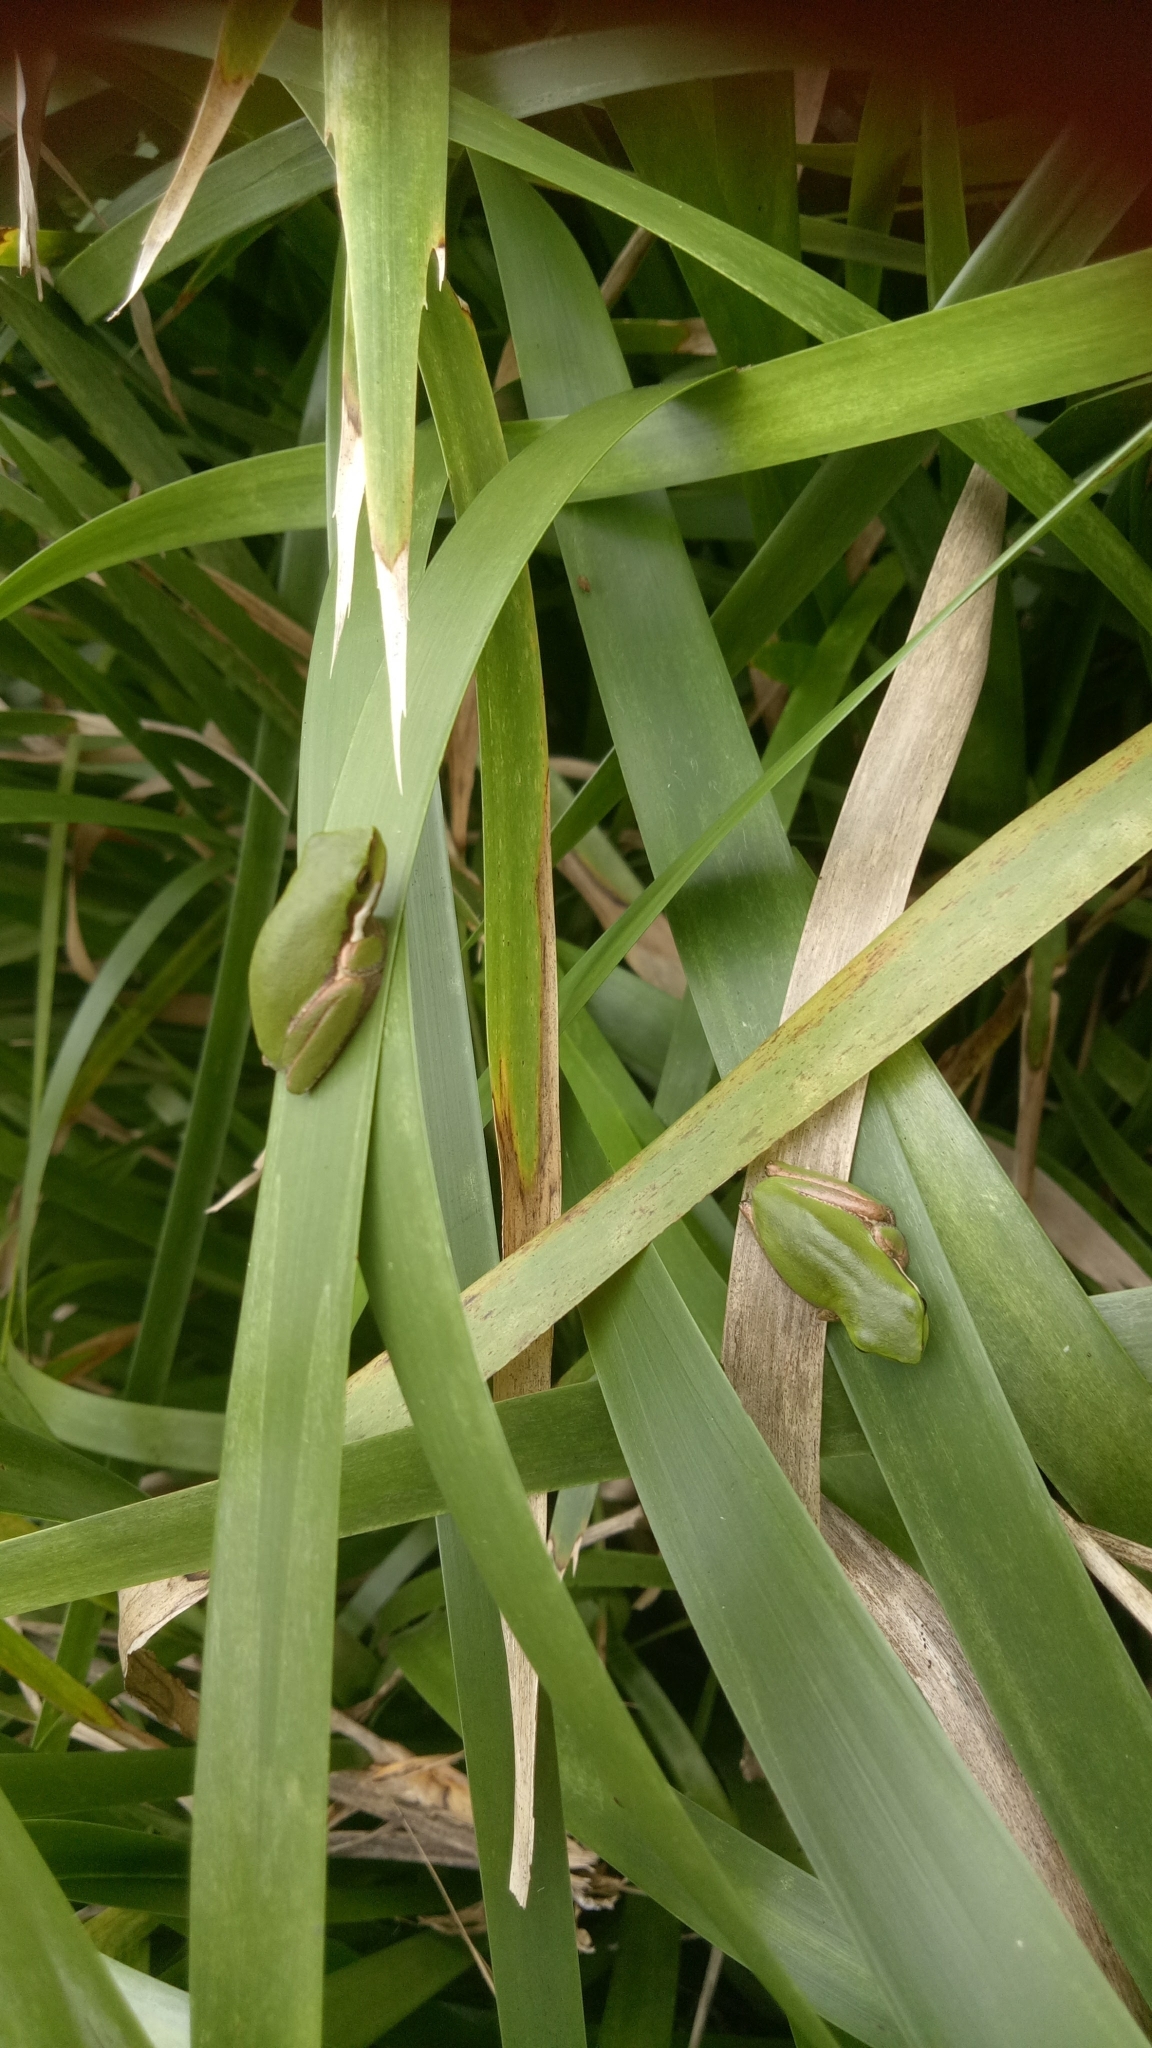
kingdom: Animalia
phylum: Chordata
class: Amphibia
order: Anura
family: Pelodryadidae
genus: Litoria
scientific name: Litoria fallax
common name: Eastern dwarf treefrog
